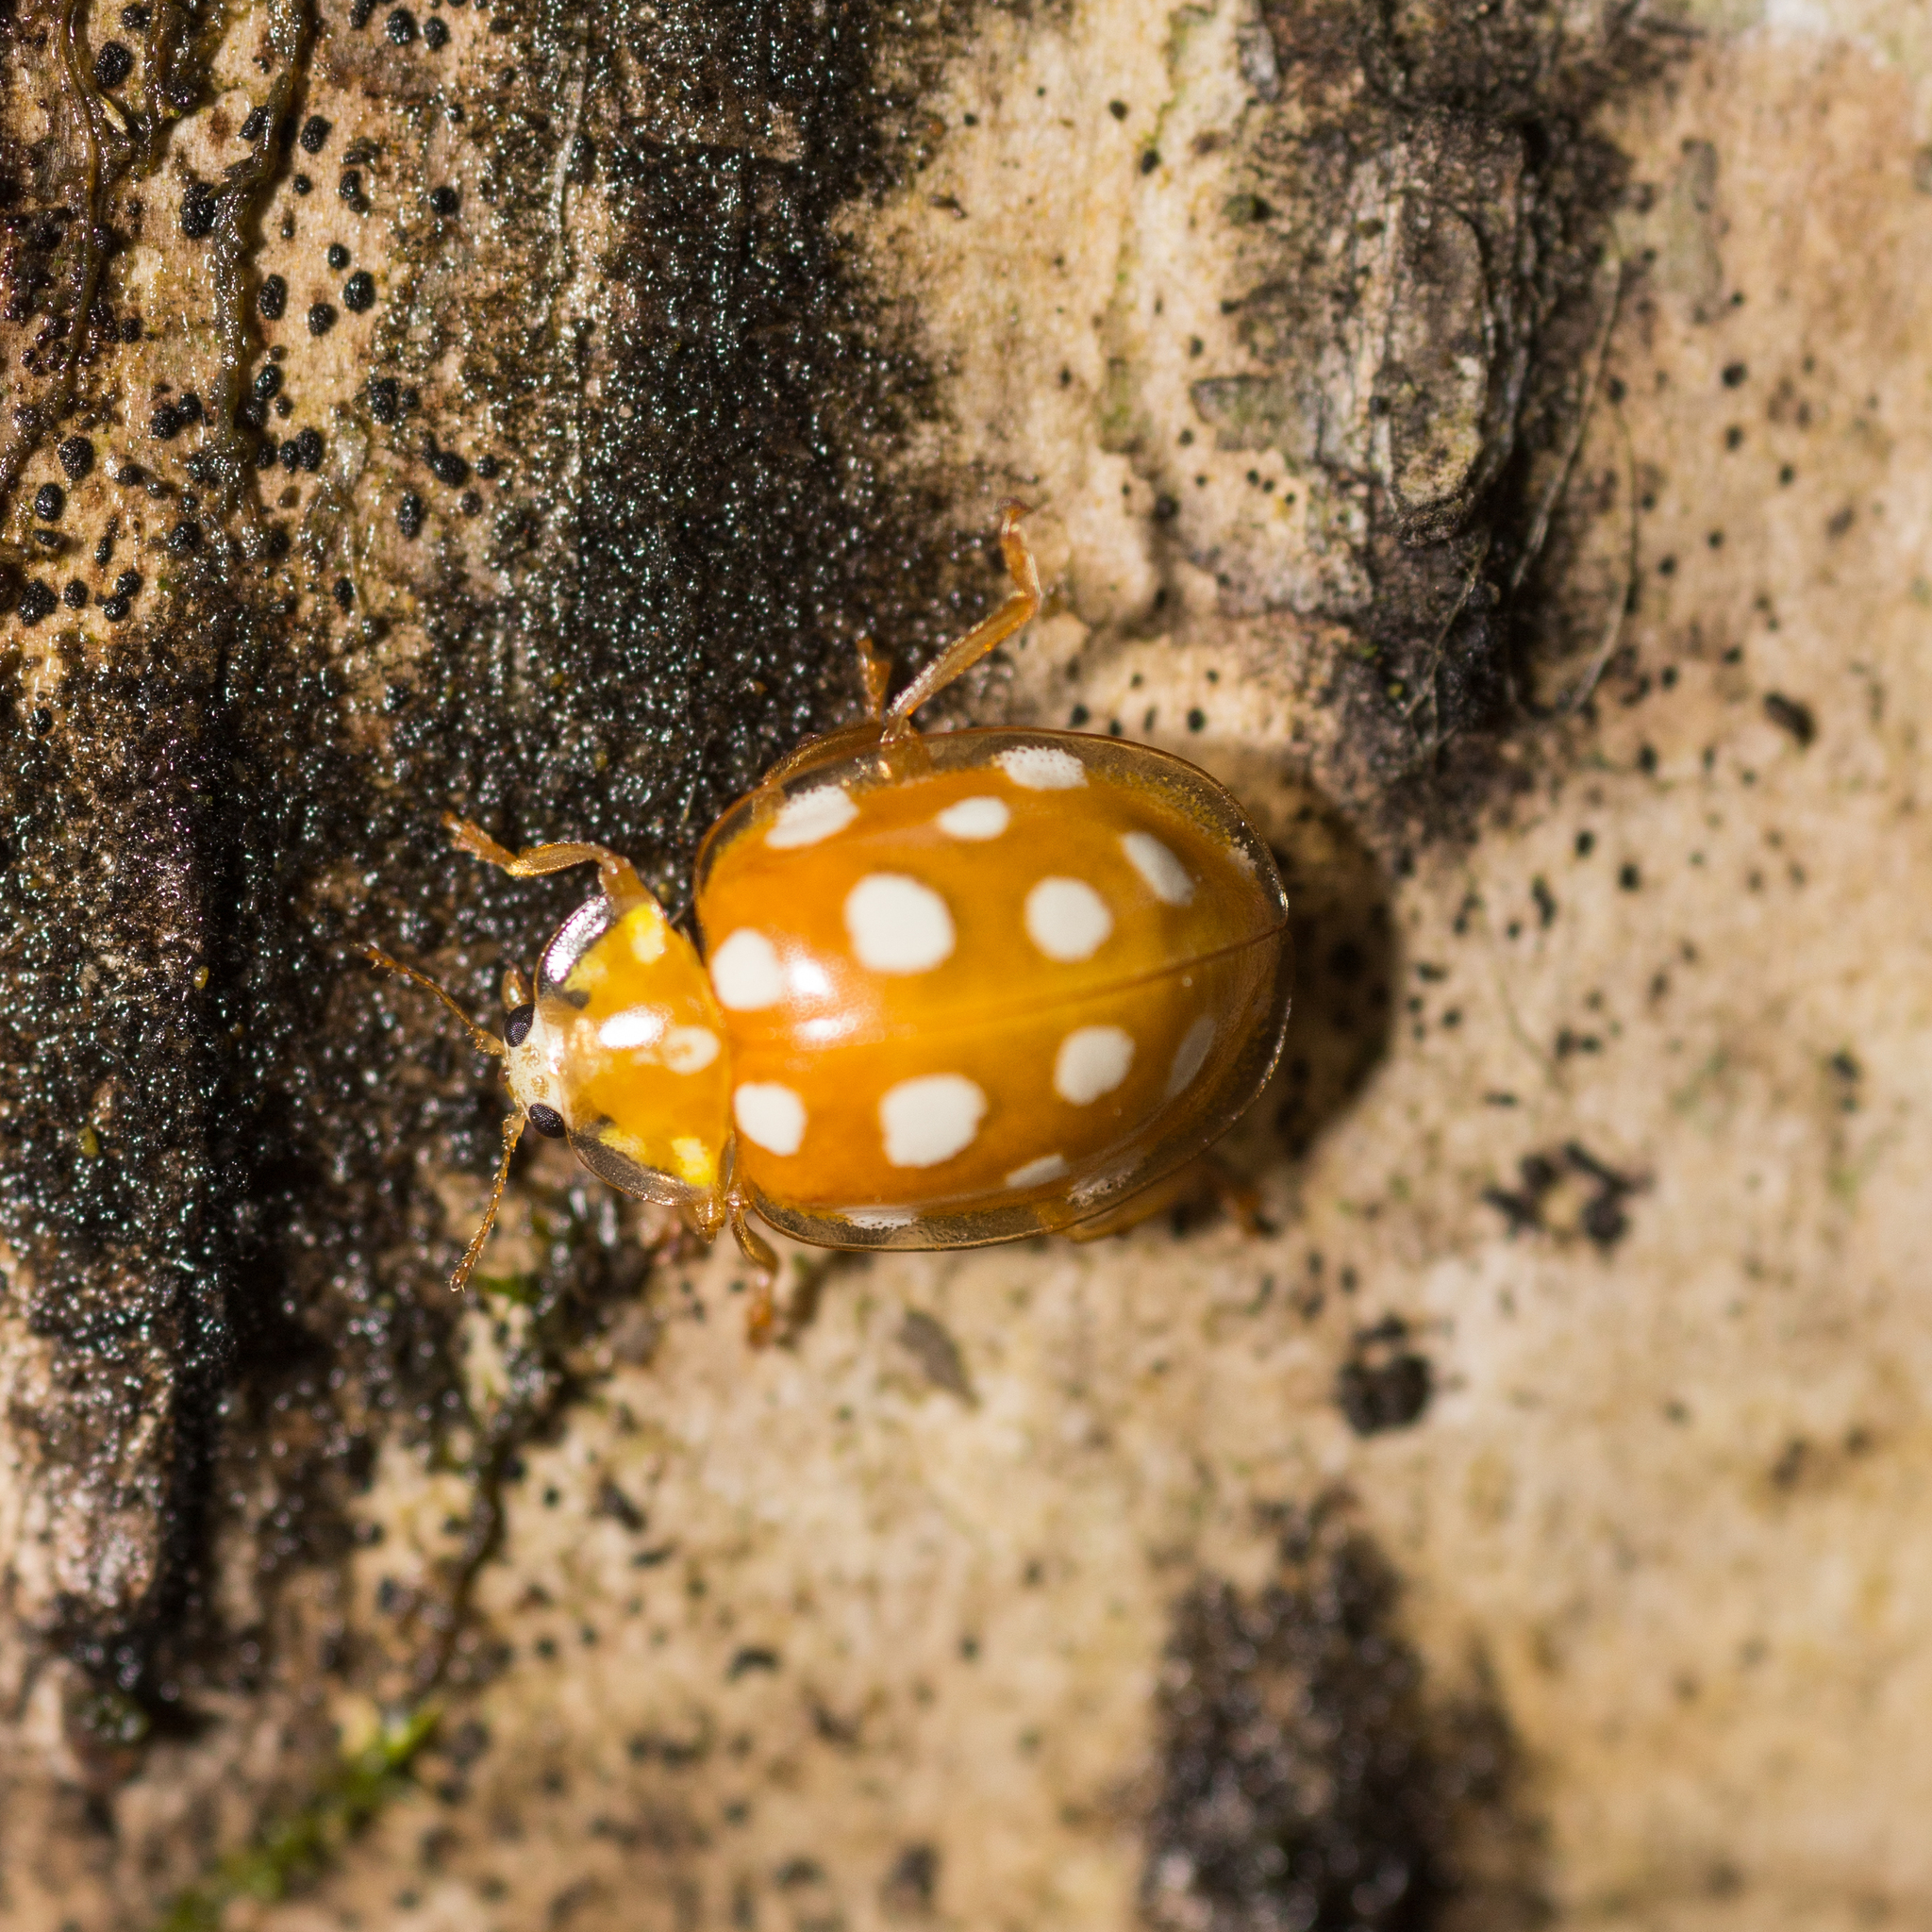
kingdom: Animalia
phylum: Arthropoda
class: Insecta
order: Coleoptera
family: Coccinellidae
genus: Halyzia
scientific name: Halyzia sedecimguttata
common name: Orange ladybird
